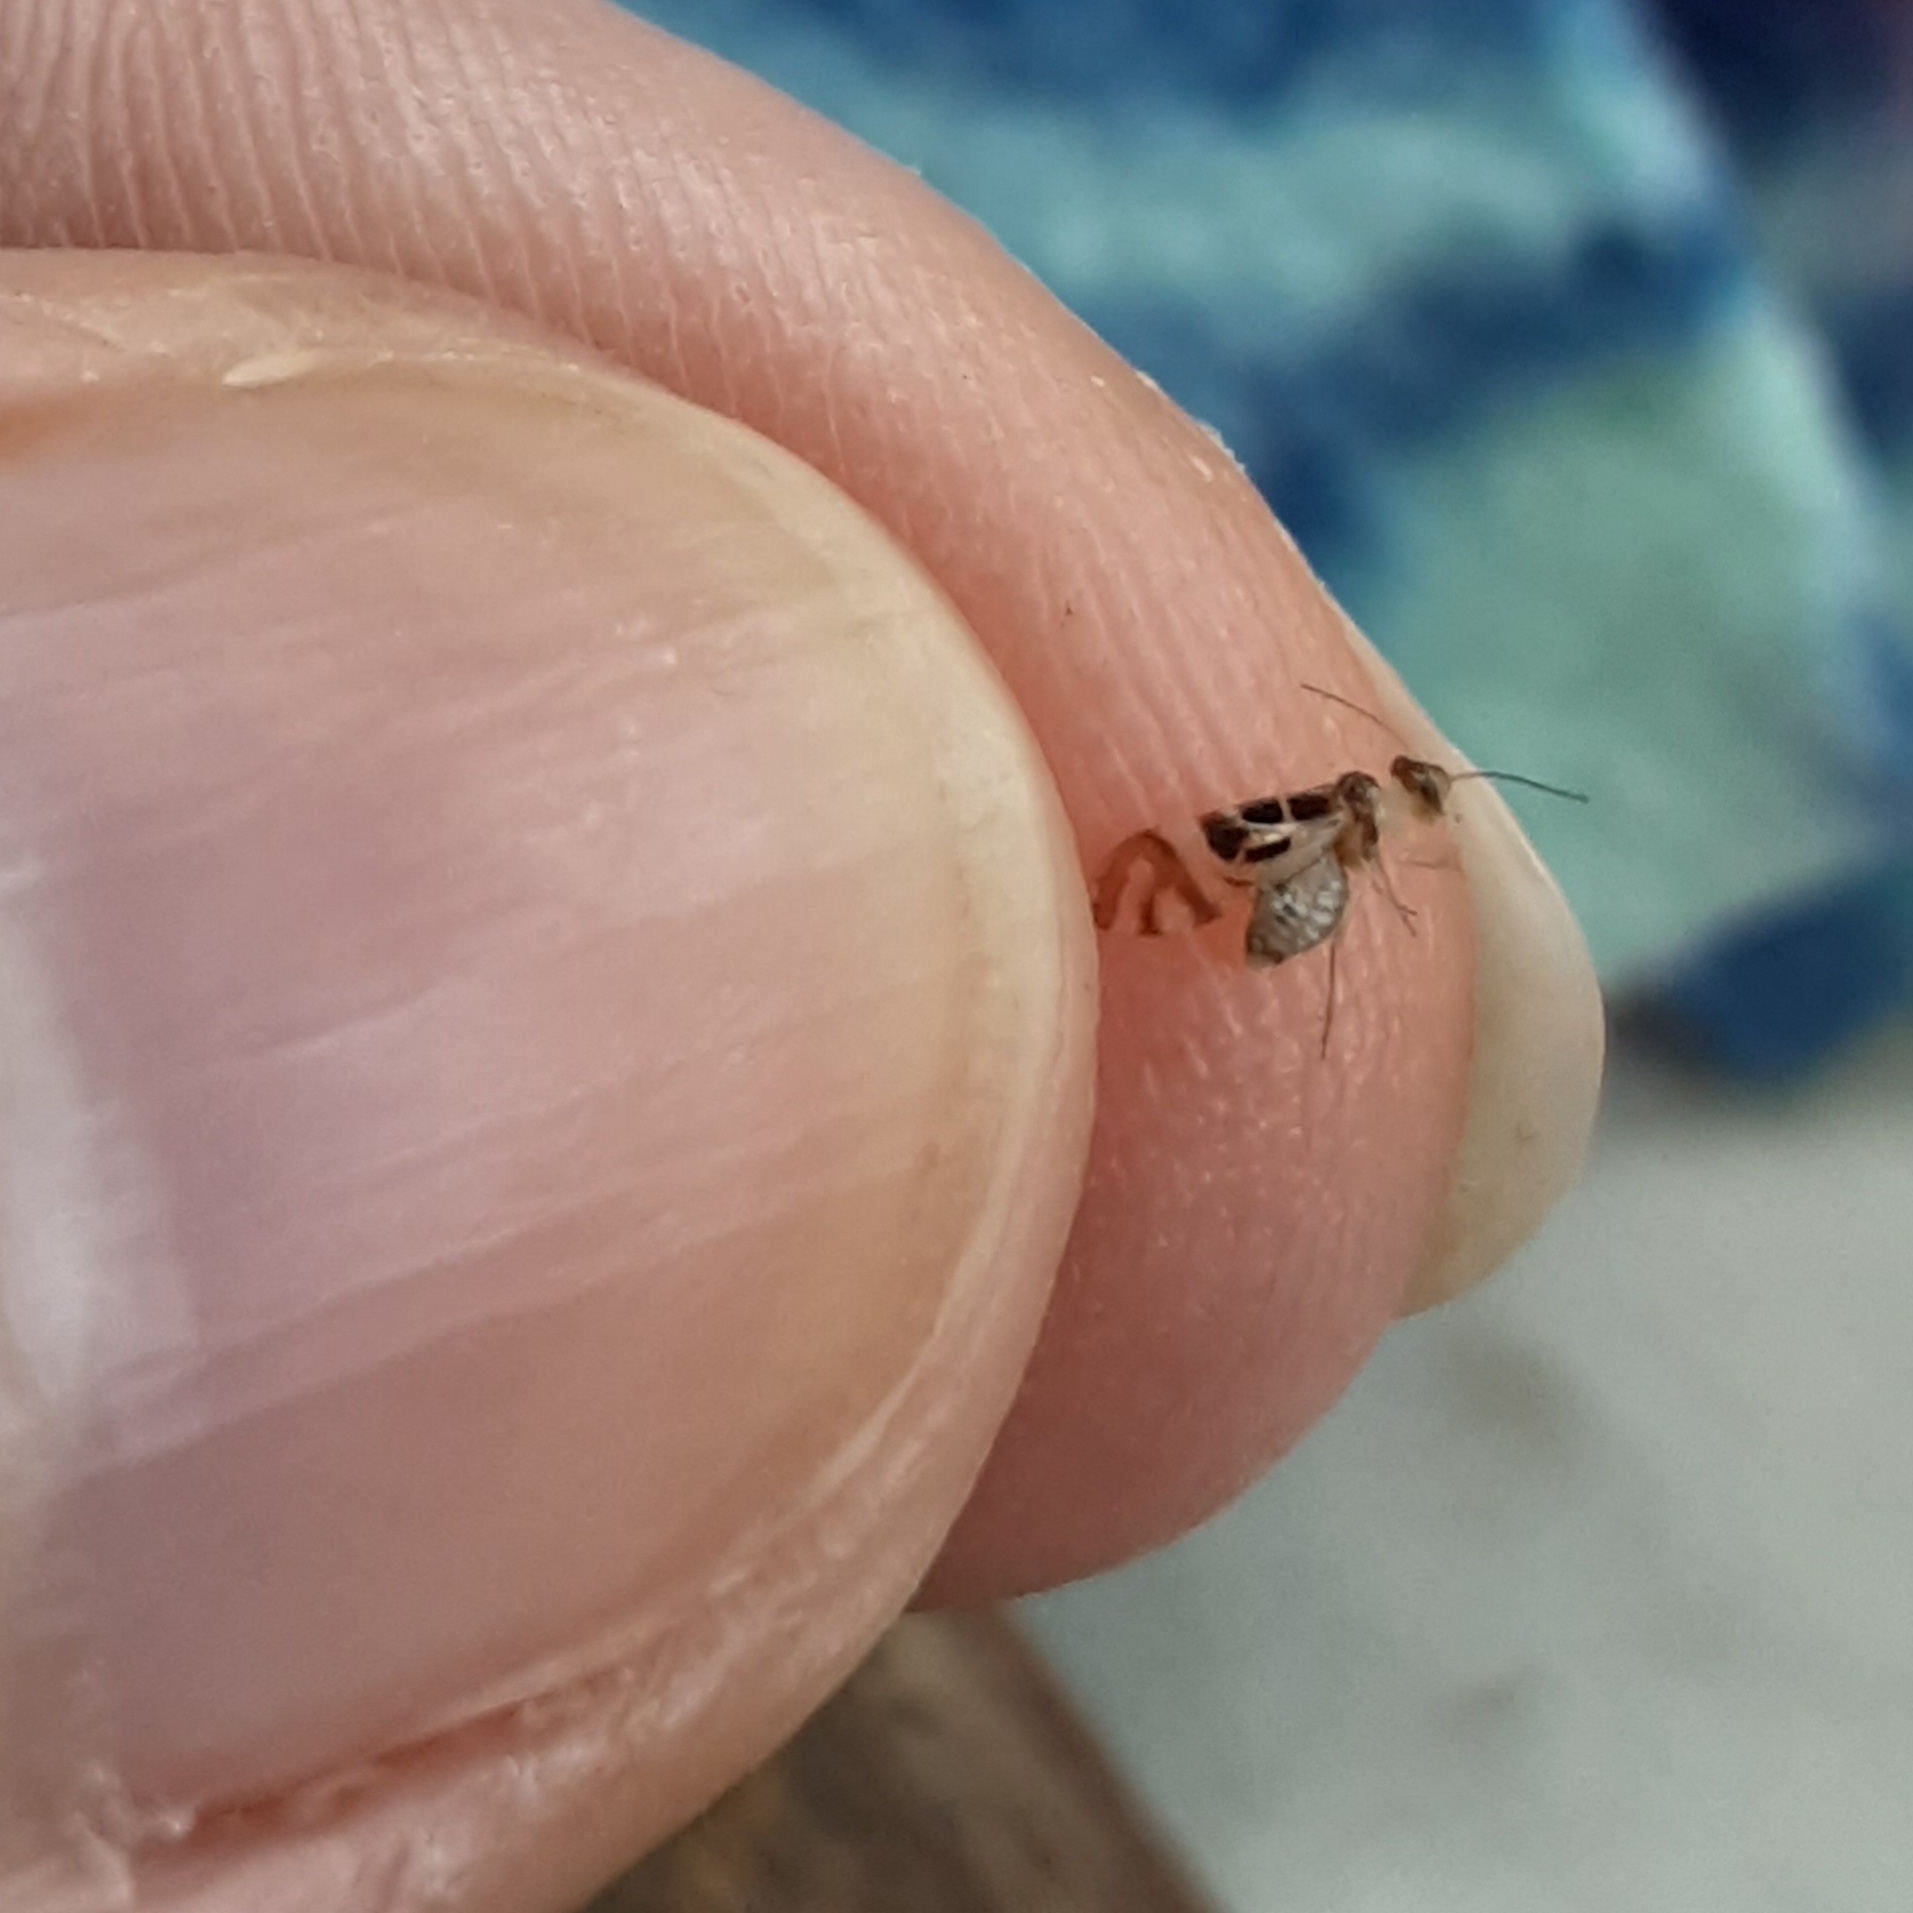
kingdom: Animalia
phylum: Arthropoda
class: Insecta
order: Psocodea
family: Stenopsocidae
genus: Graphopsocus
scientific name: Graphopsocus cruciatus
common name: Lizard bark louse
